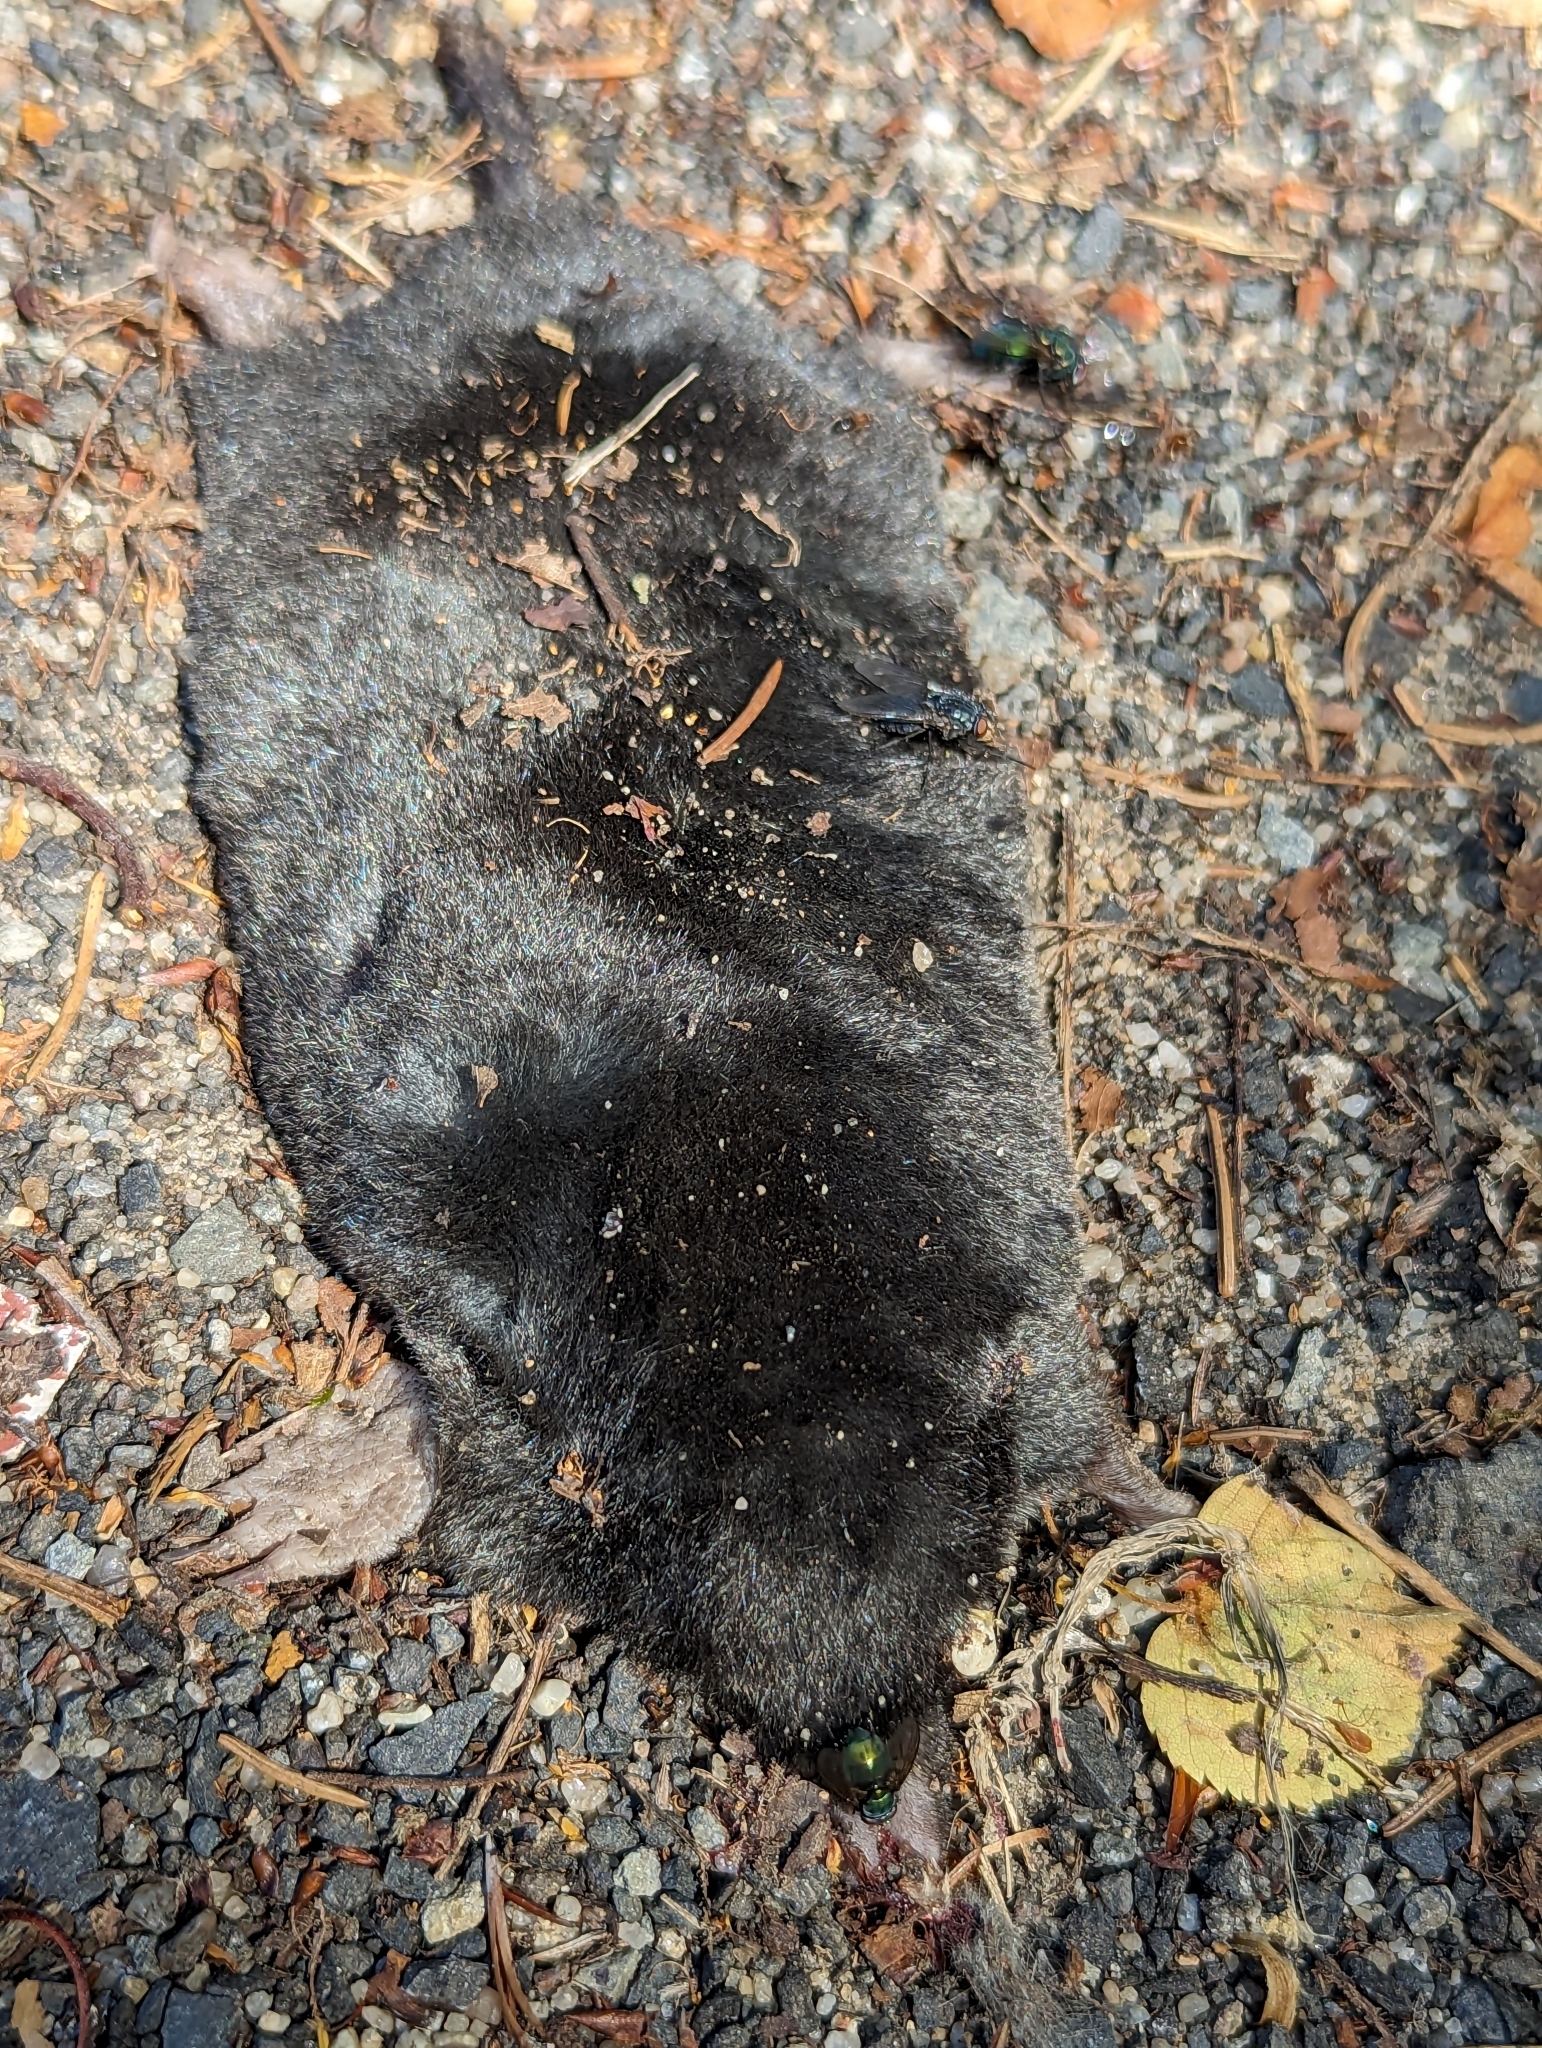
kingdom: Animalia
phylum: Chordata
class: Mammalia
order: Soricomorpha
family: Talpidae
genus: Talpa
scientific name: Talpa europaea
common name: European mole
